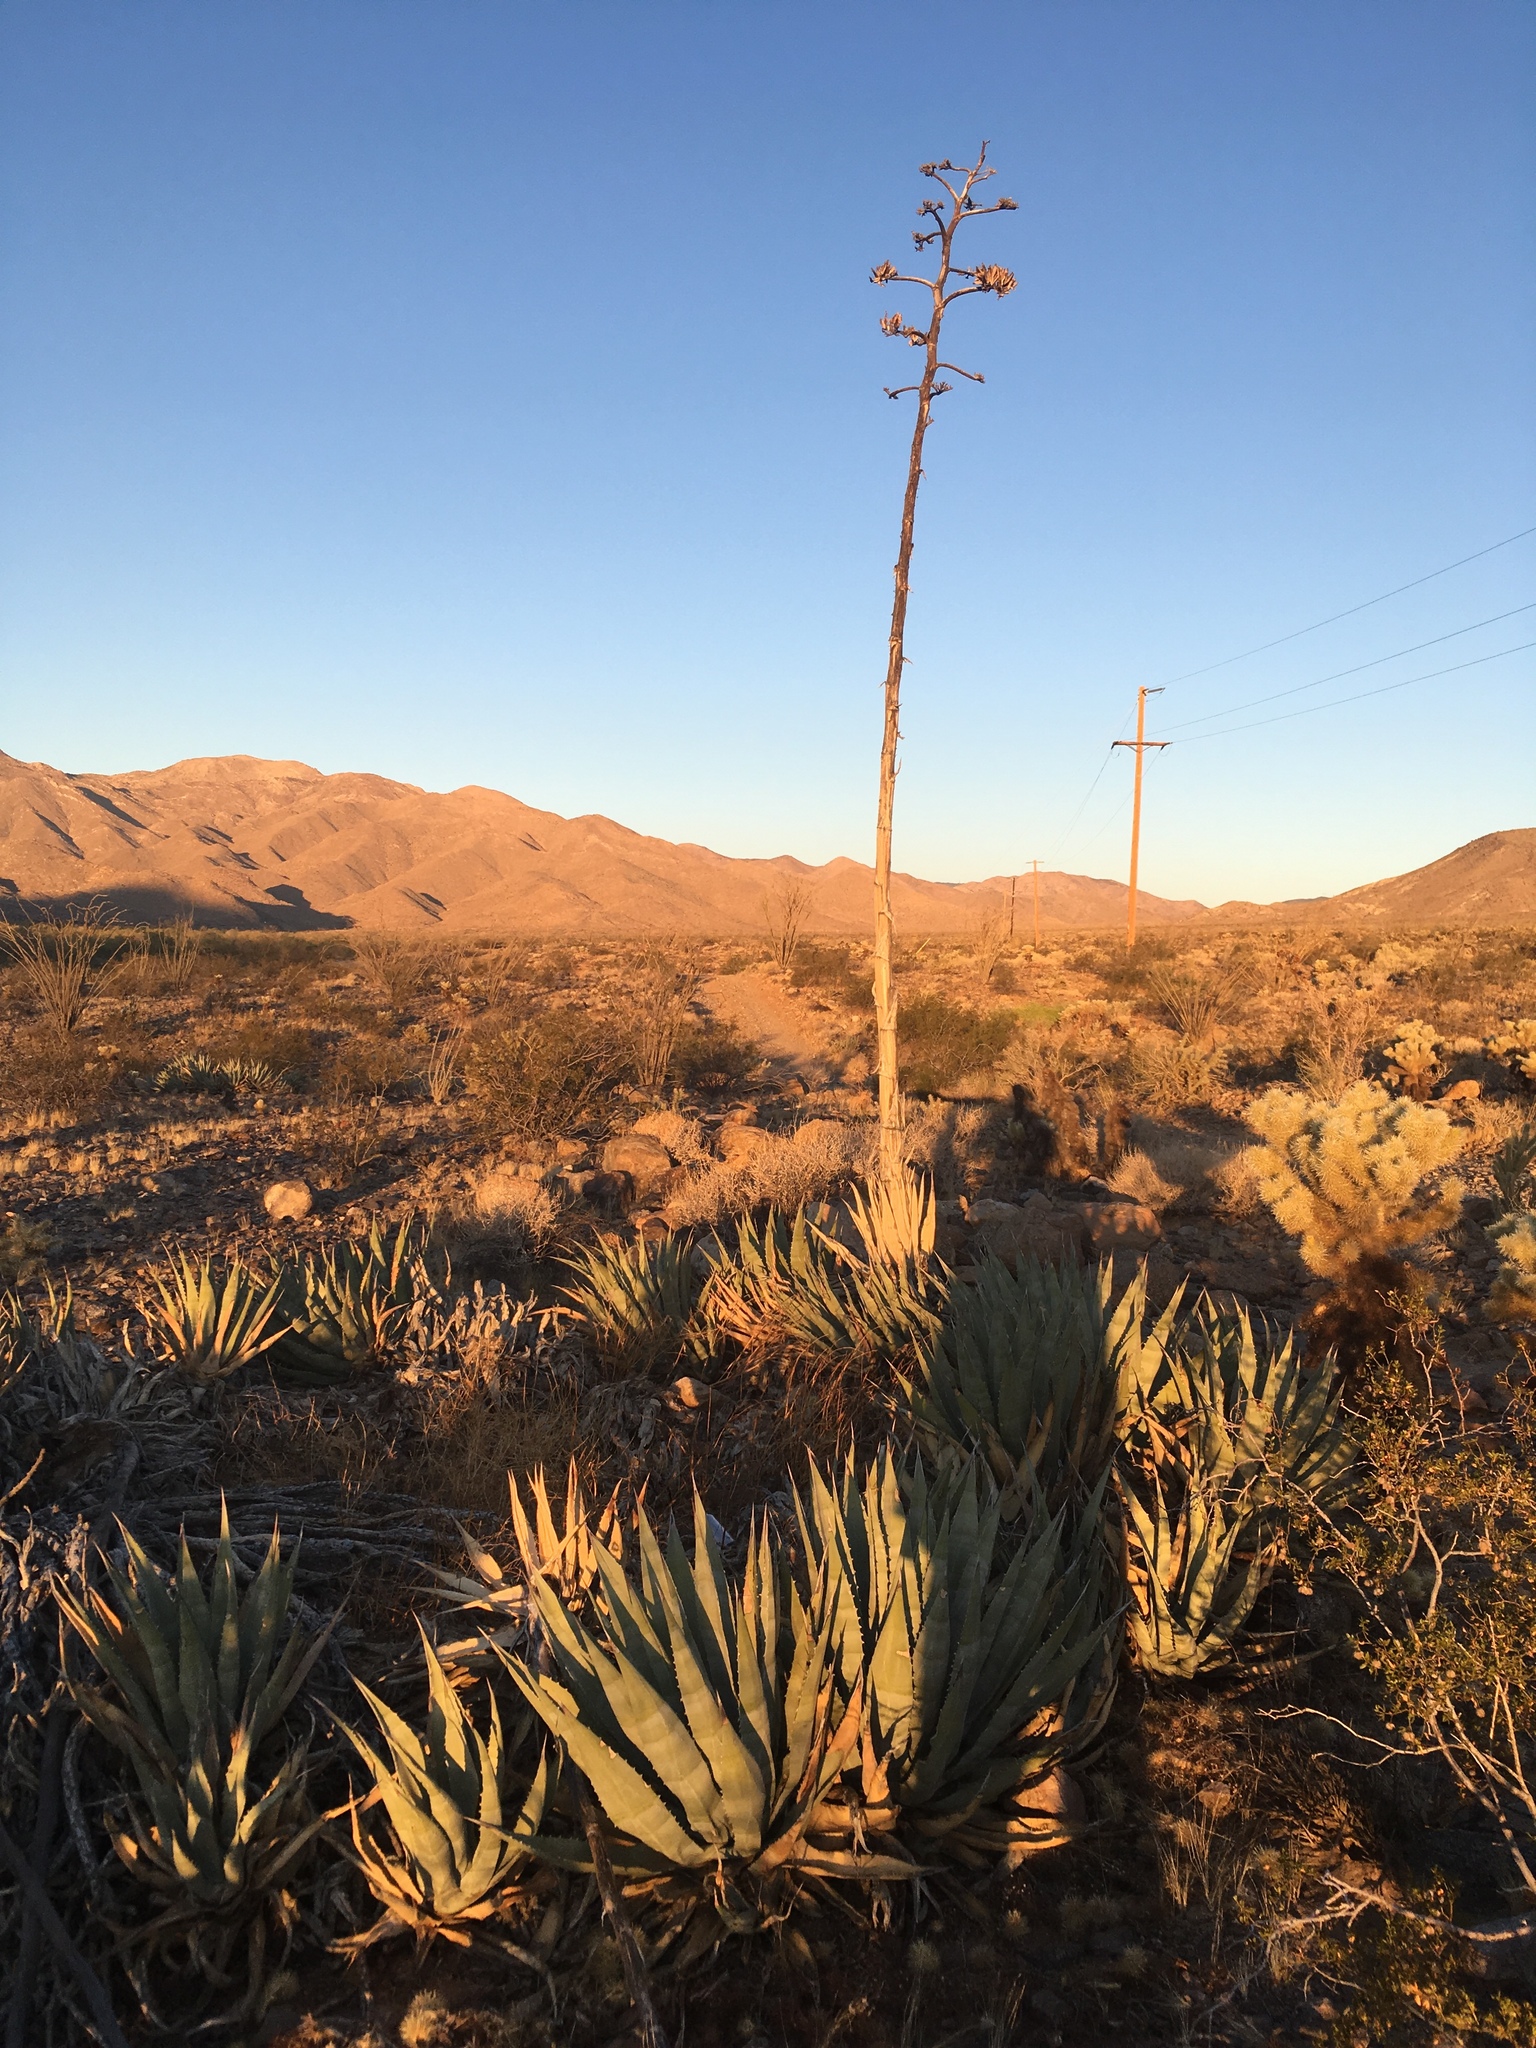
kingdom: Plantae
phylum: Tracheophyta
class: Liliopsida
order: Asparagales
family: Asparagaceae
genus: Agave
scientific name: Agave deserti
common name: Desert agave
